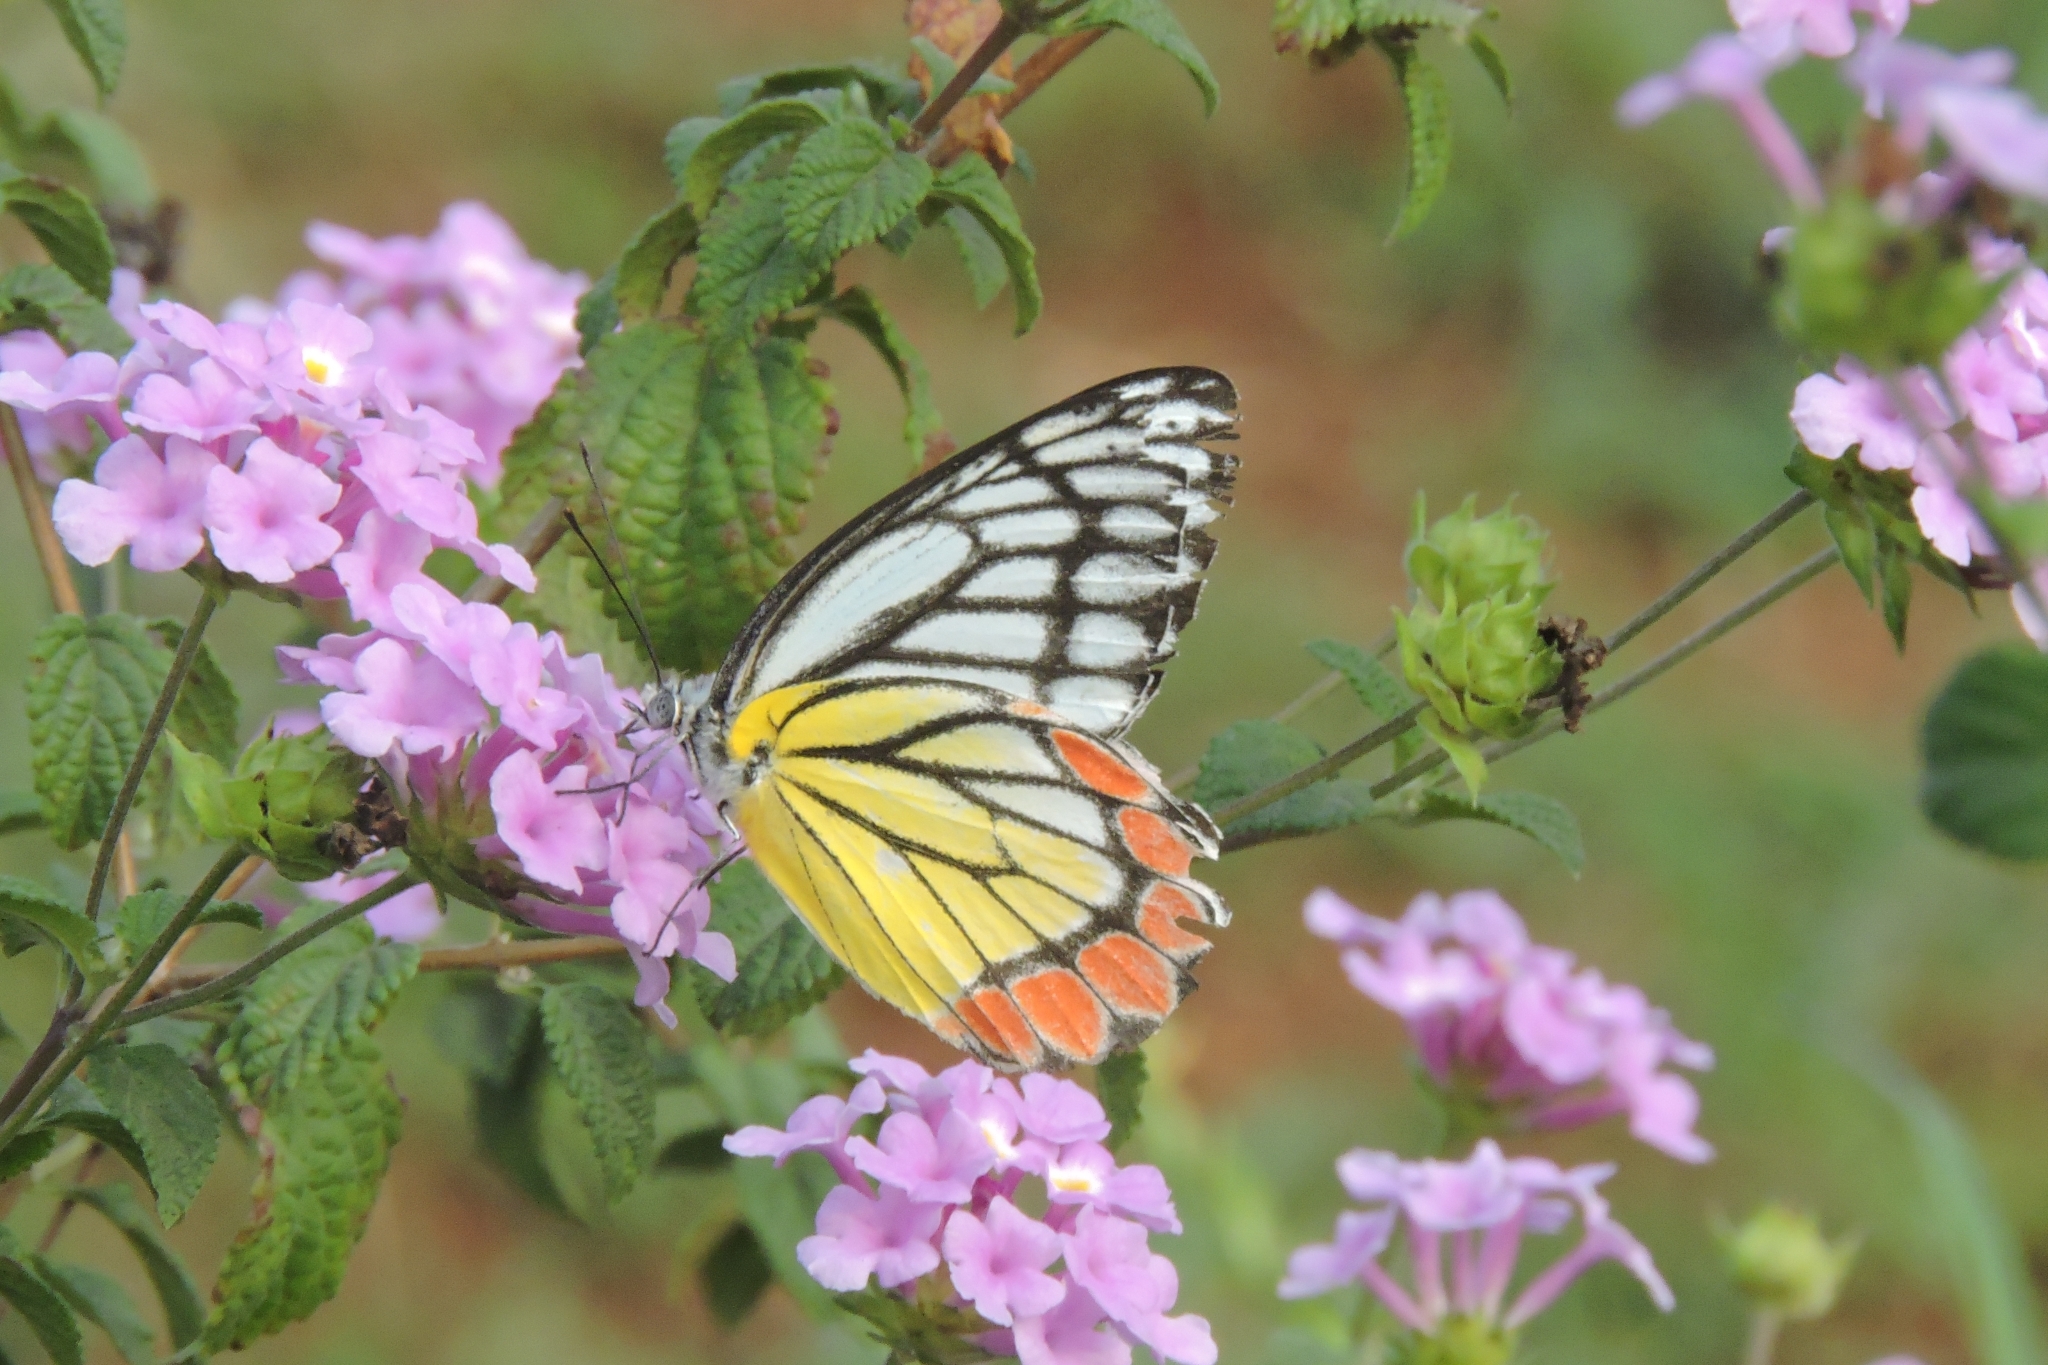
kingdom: Animalia
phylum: Arthropoda
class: Insecta
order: Lepidoptera
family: Pieridae
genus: Delias
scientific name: Delias eucharis
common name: Common jezebel
